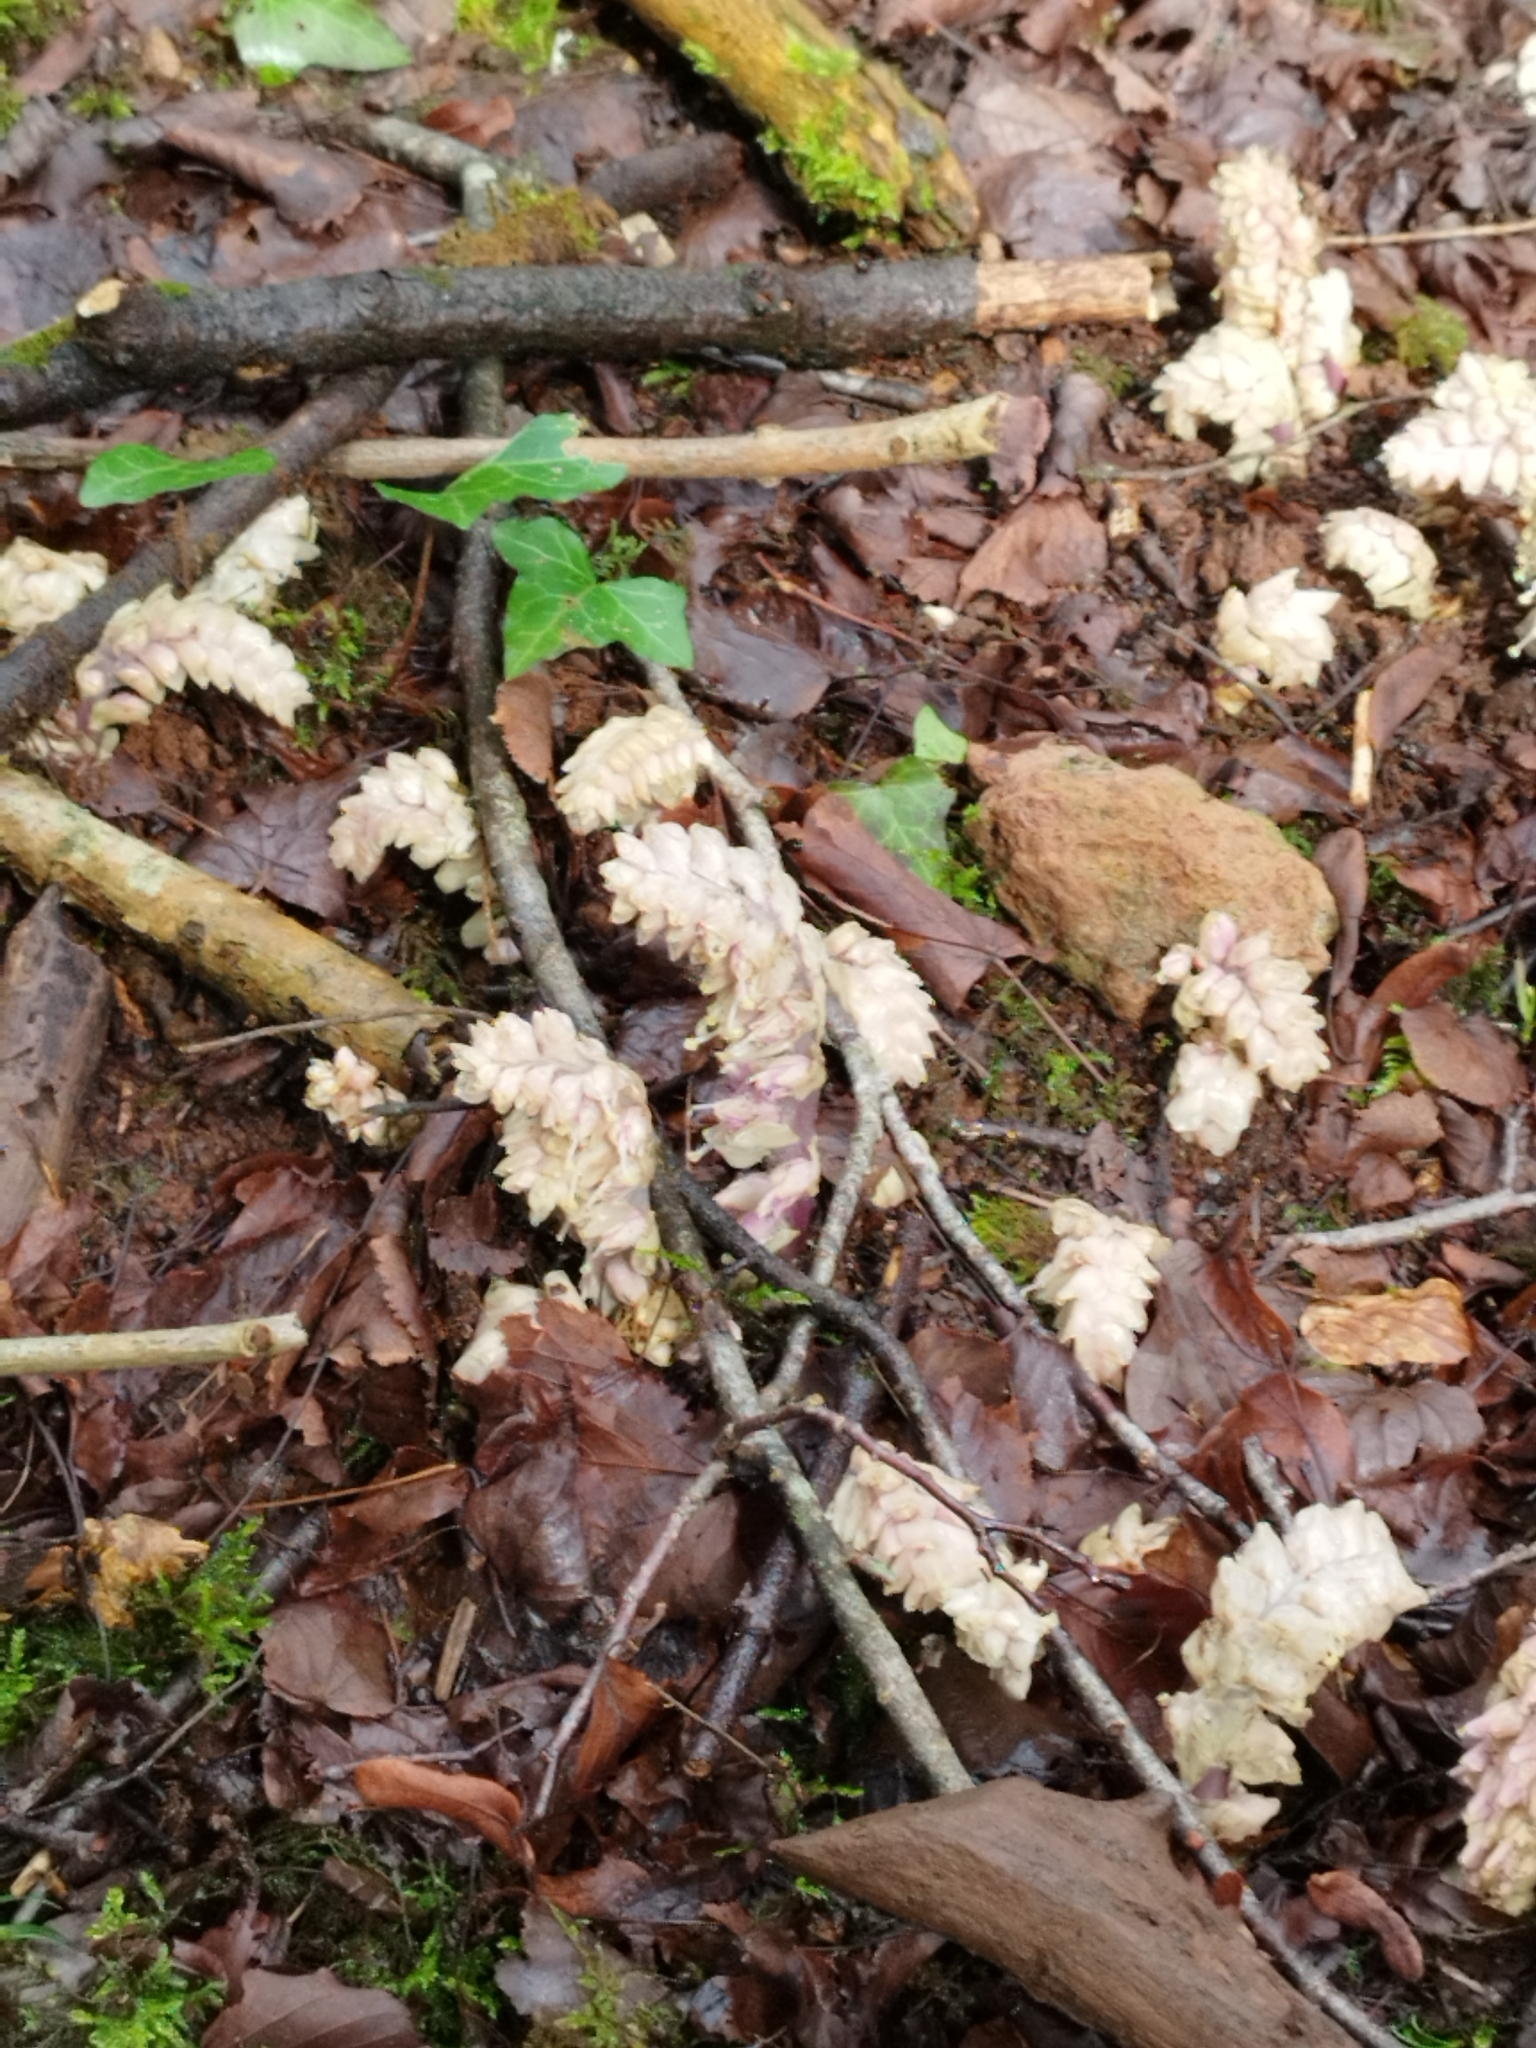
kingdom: Plantae
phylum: Tracheophyta
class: Magnoliopsida
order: Lamiales
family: Orobanchaceae
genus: Lathraea
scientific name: Lathraea squamaria
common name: Toothwort
